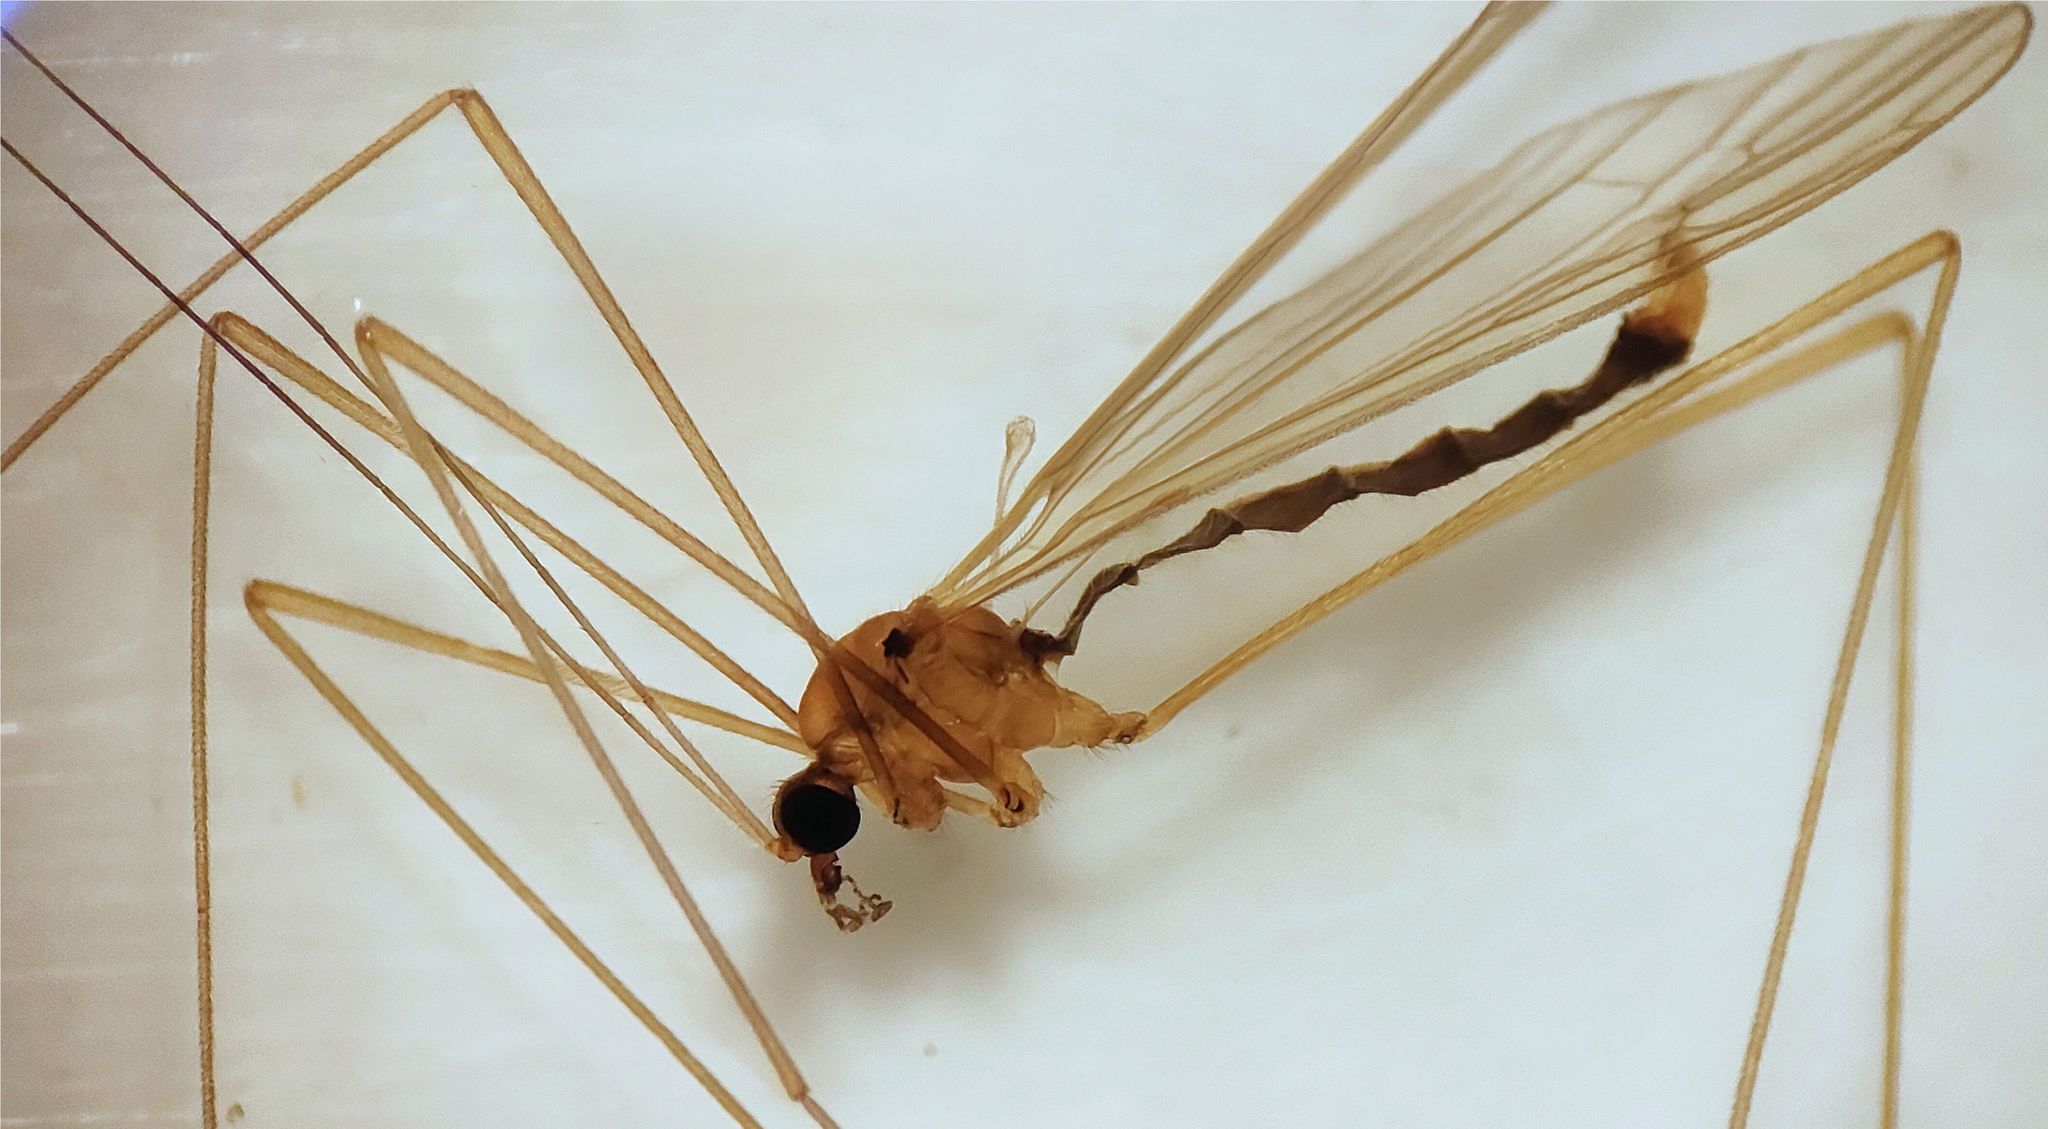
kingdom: Animalia
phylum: Arthropoda
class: Insecta
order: Diptera
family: Limoniidae
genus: Atarba
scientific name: Atarba eluta
